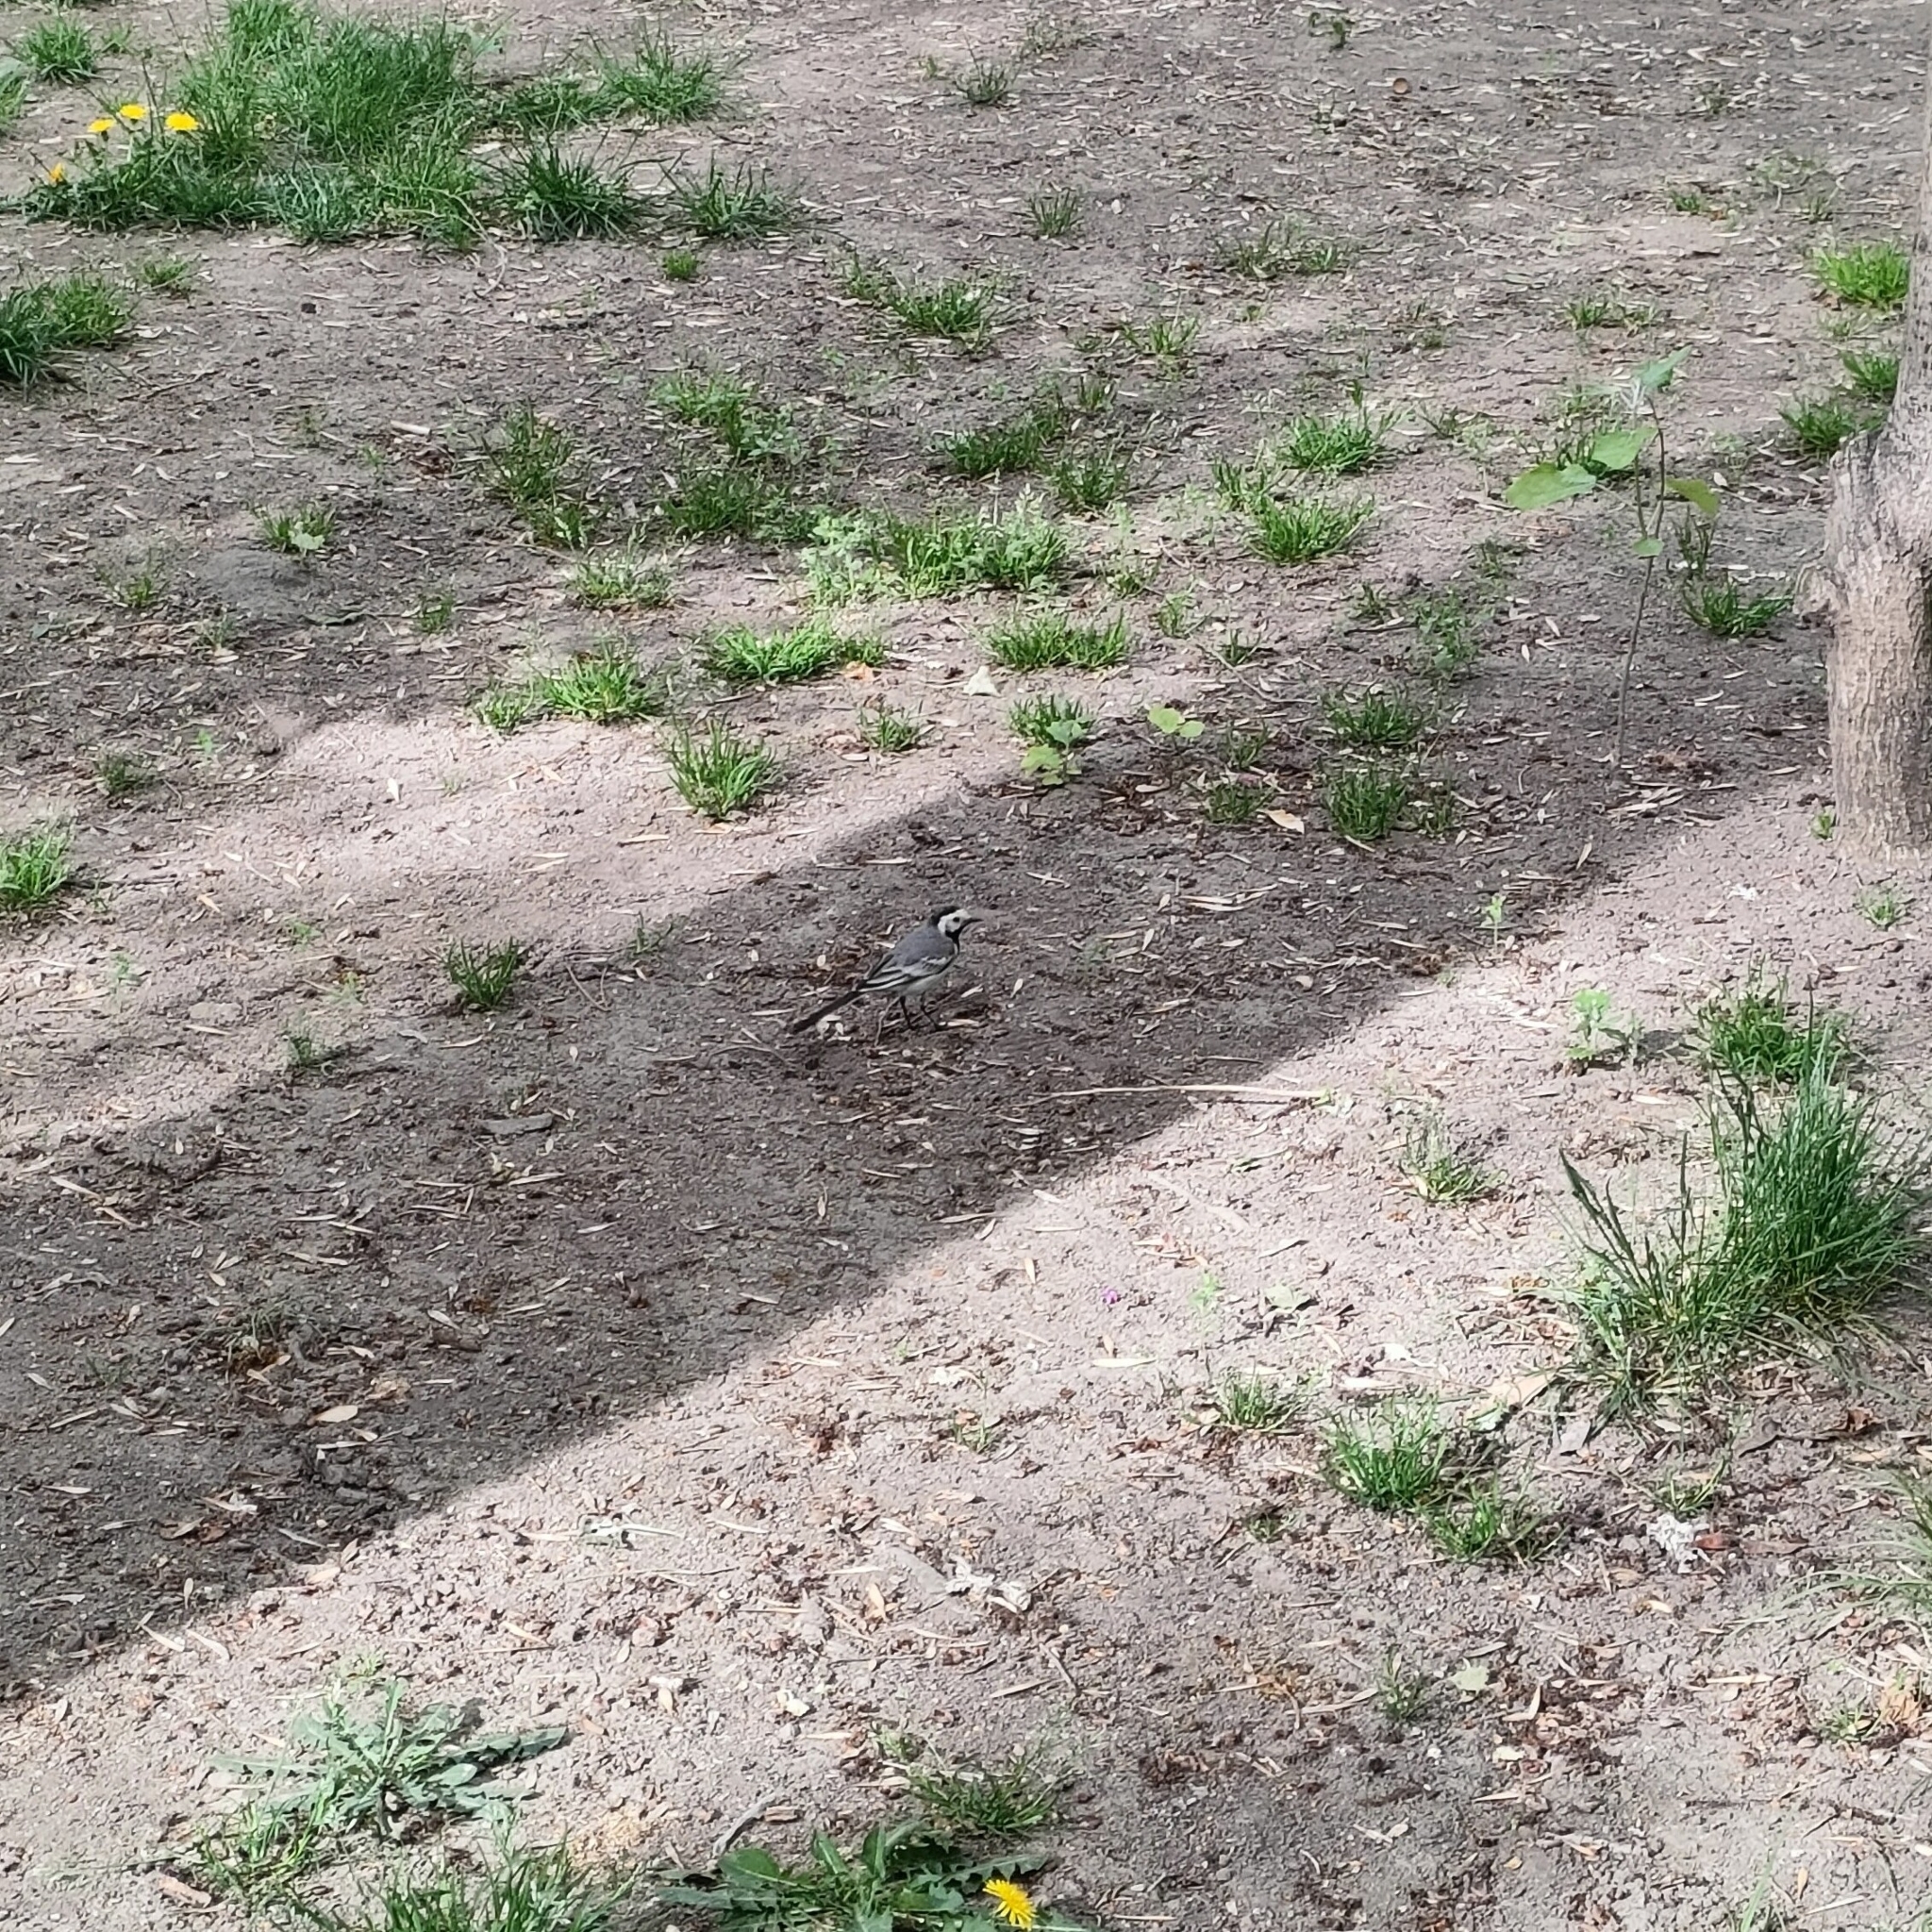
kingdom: Animalia
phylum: Chordata
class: Aves
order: Passeriformes
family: Motacillidae
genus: Motacilla
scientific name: Motacilla alba
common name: White wagtail
